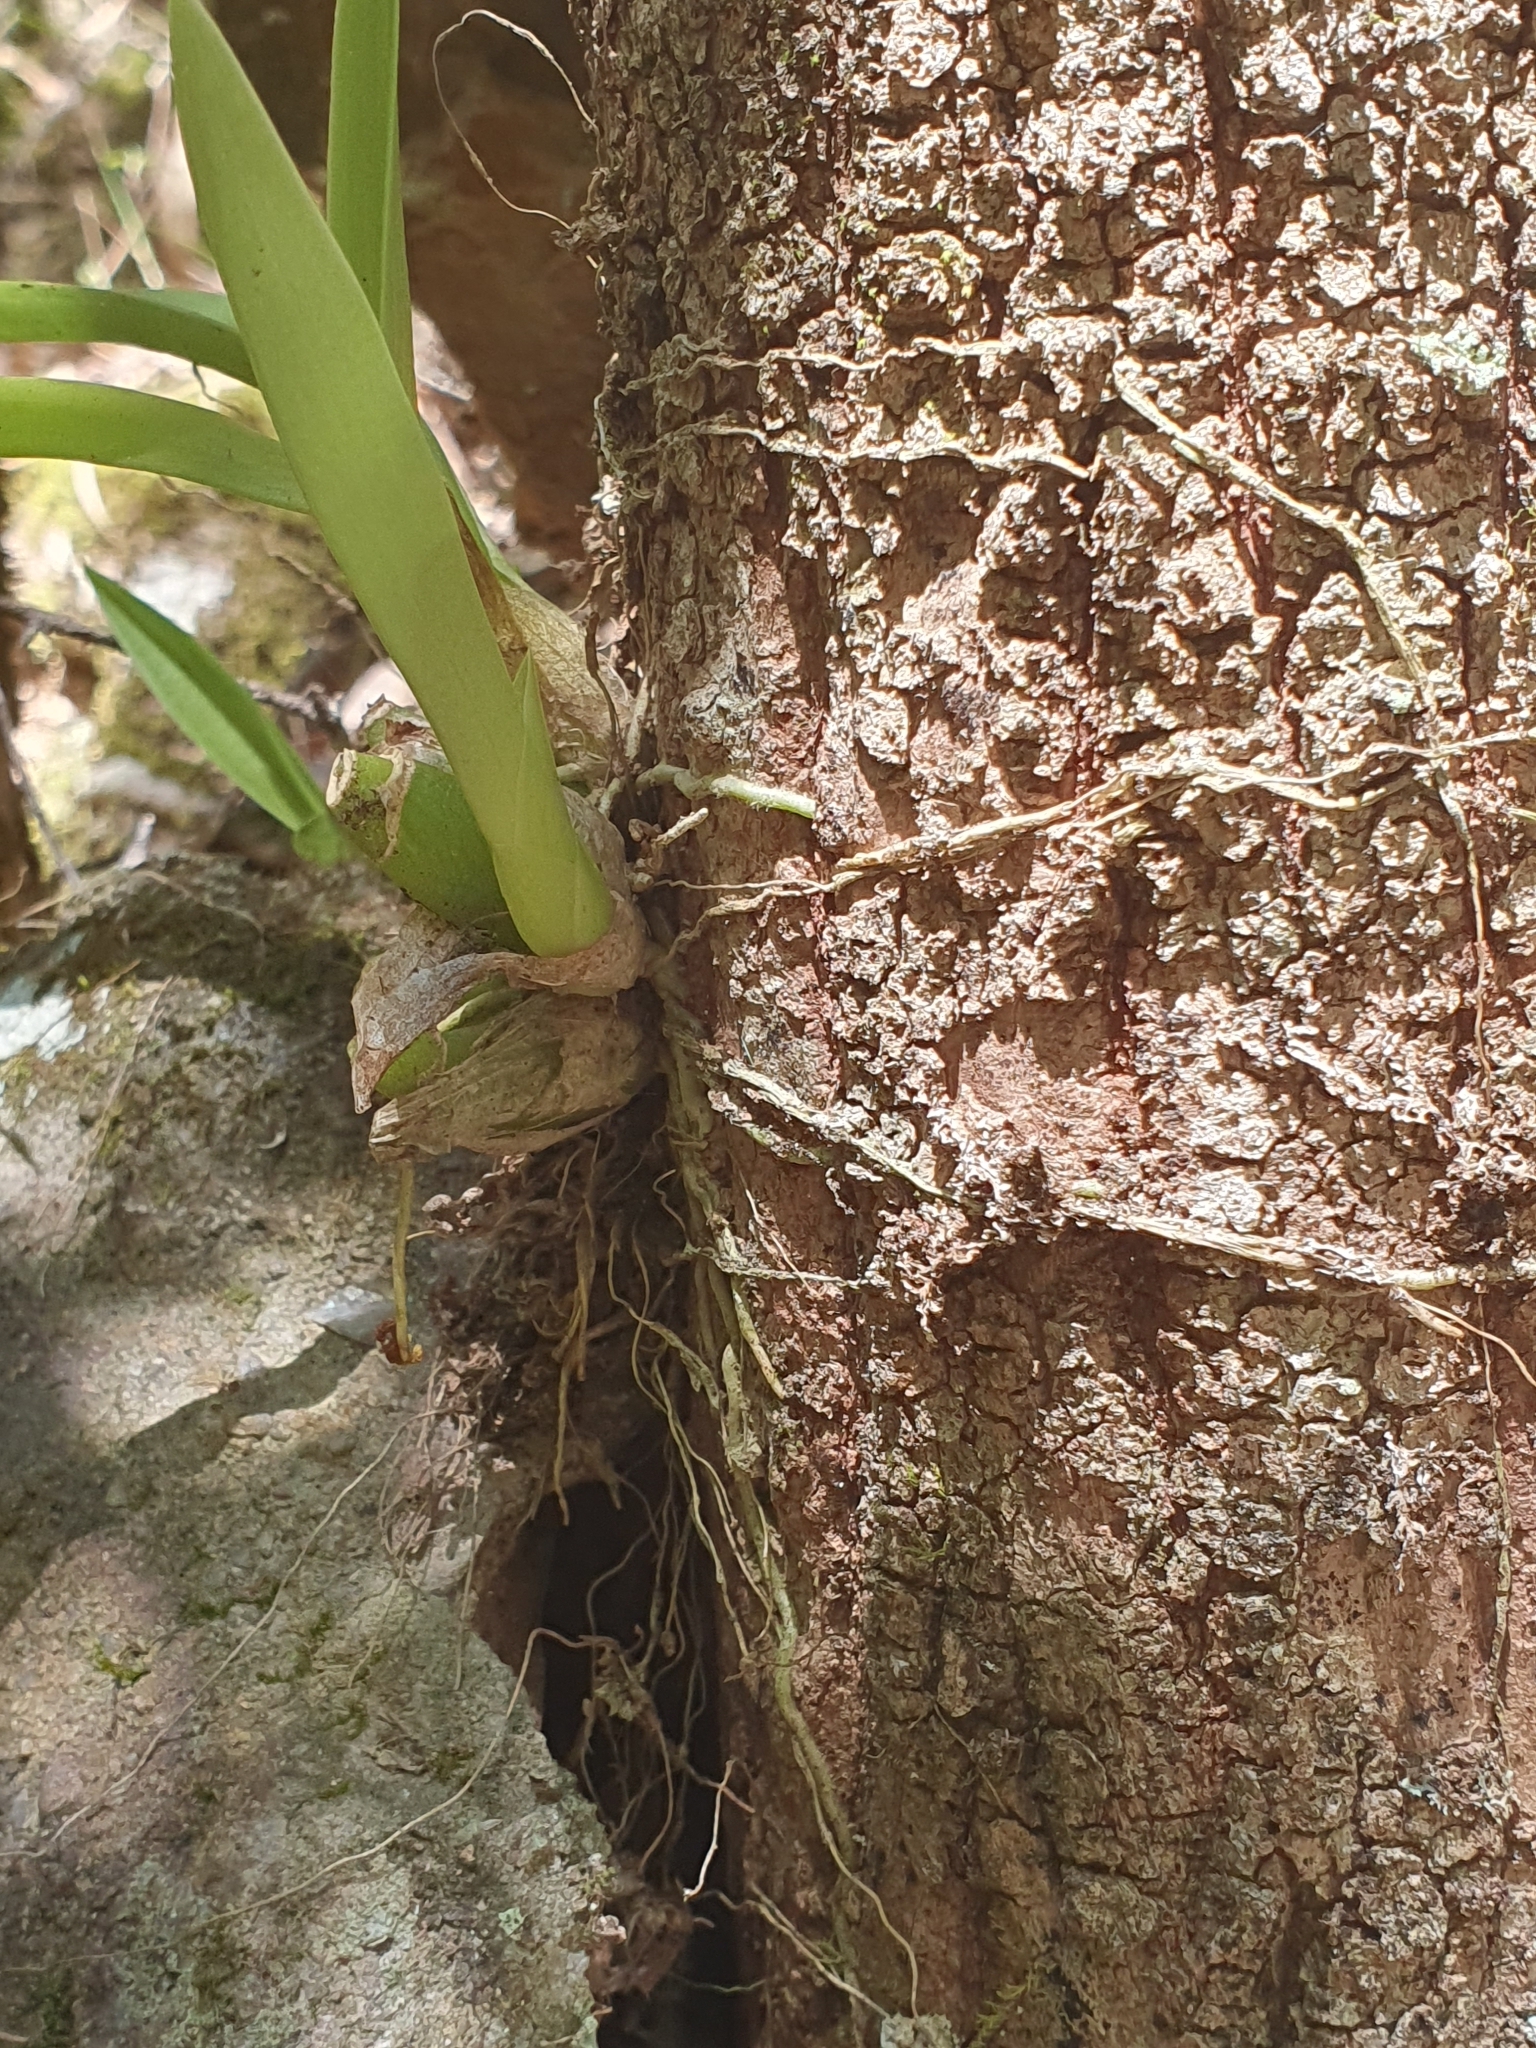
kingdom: Plantae
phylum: Tracheophyta
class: Liliopsida
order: Asparagales
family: Orchidaceae
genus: Liparis
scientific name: Liparis reflexa
